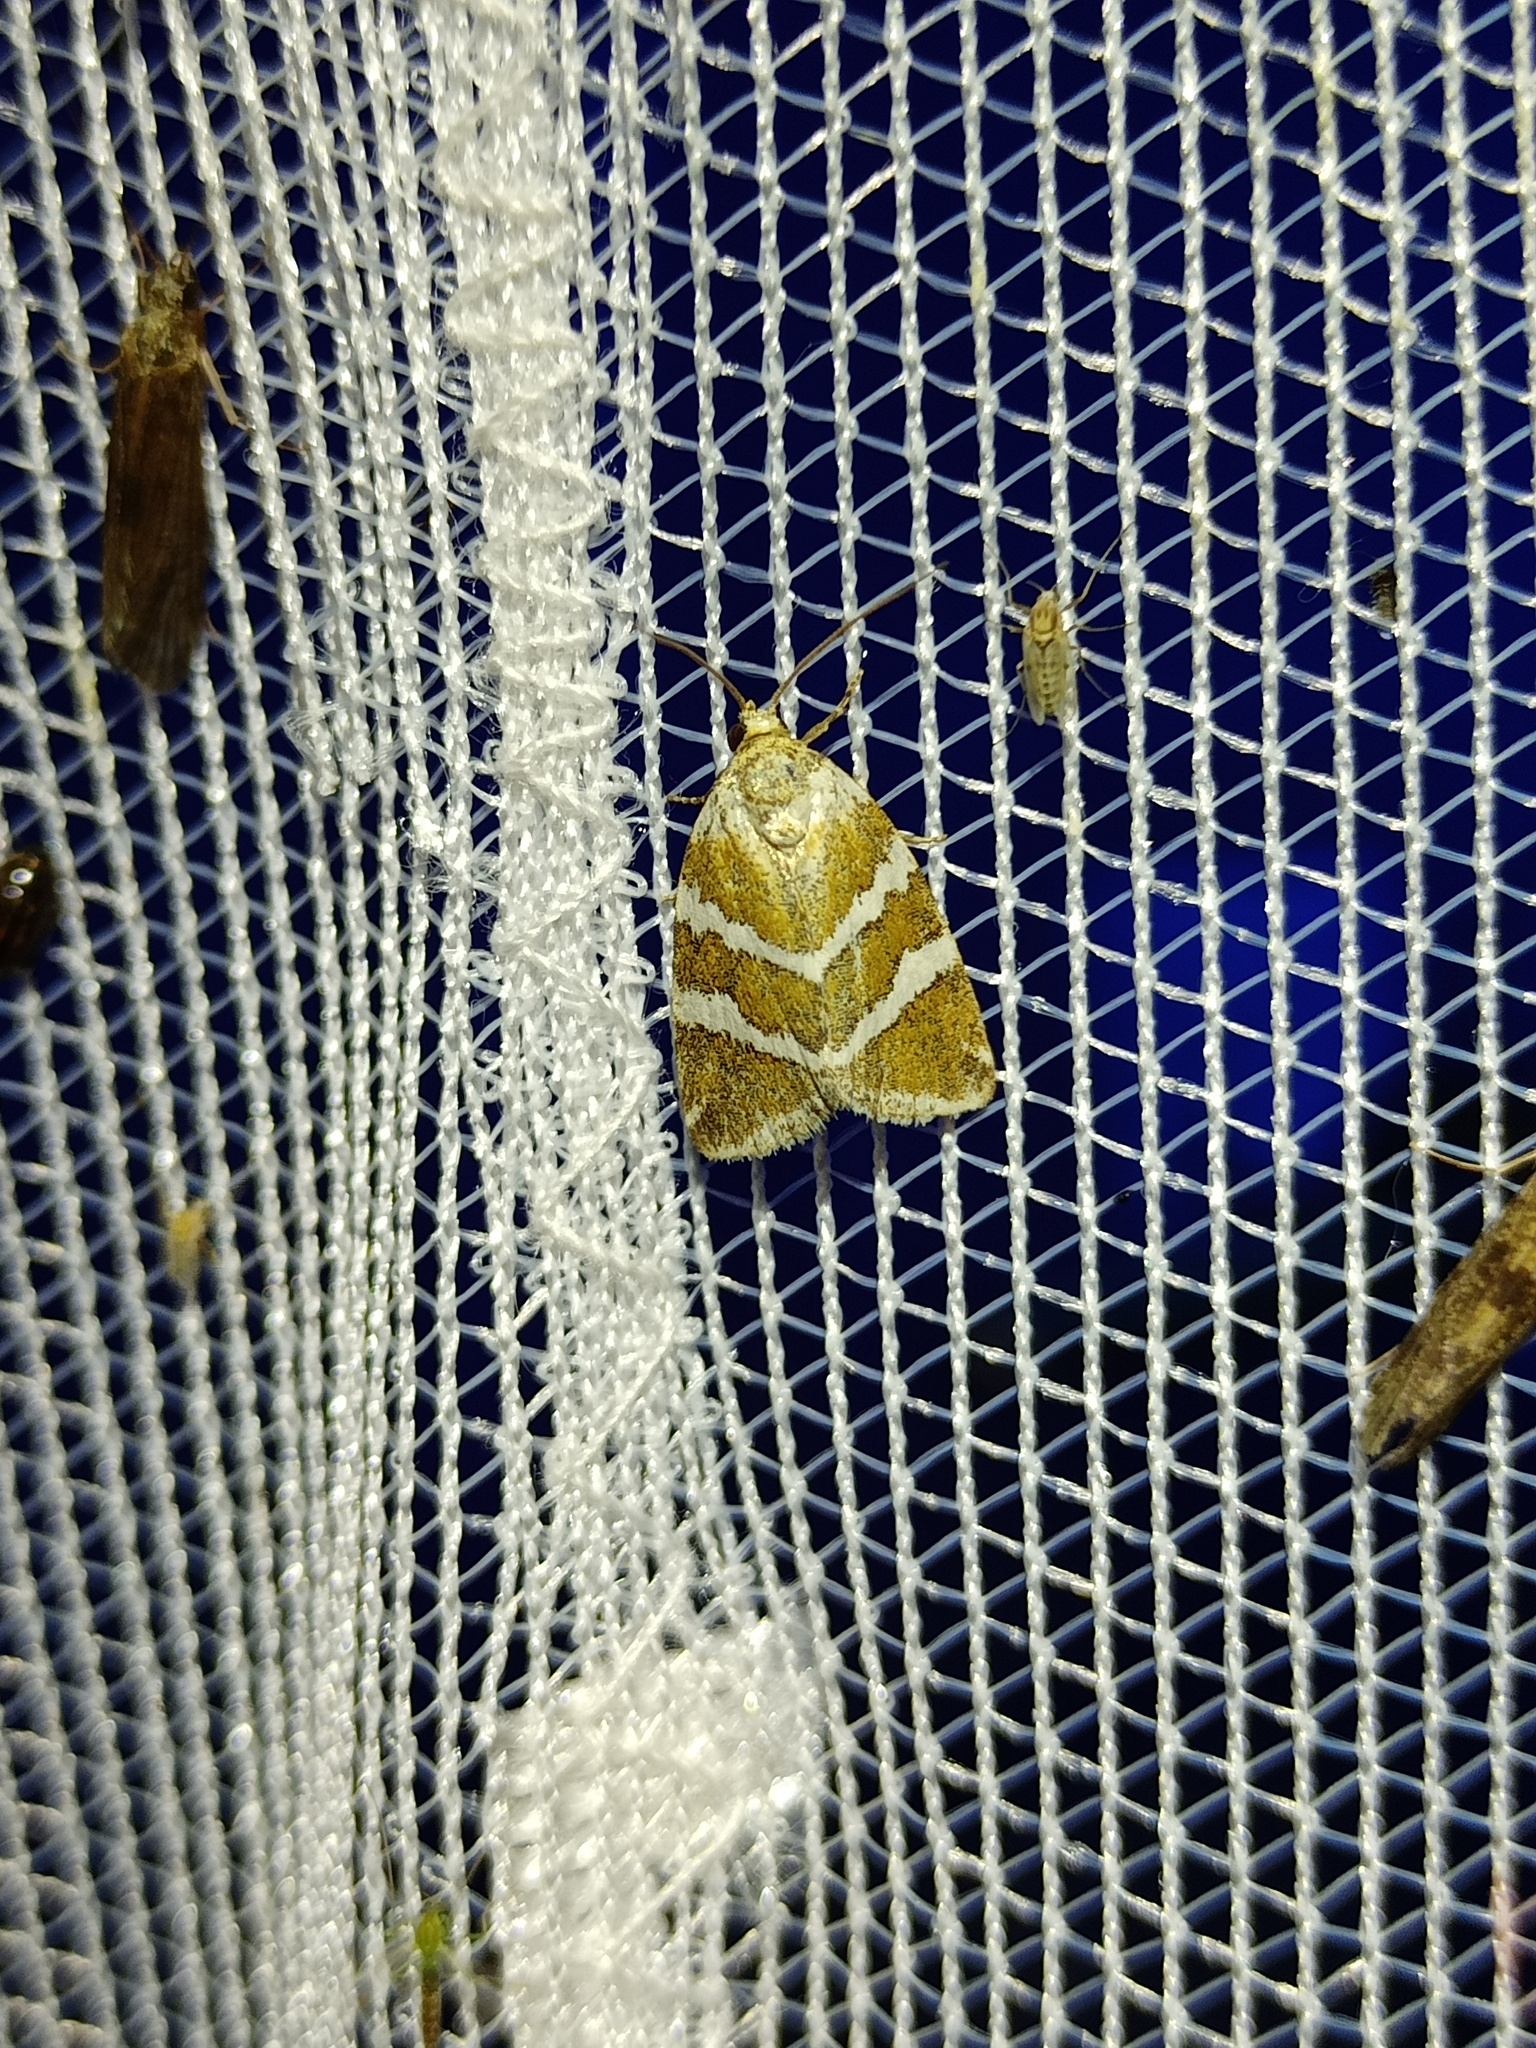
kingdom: Animalia
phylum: Arthropoda
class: Insecta
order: Lepidoptera
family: Noctuidae
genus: Deltote
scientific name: Deltote bankiana
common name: Silver barred
